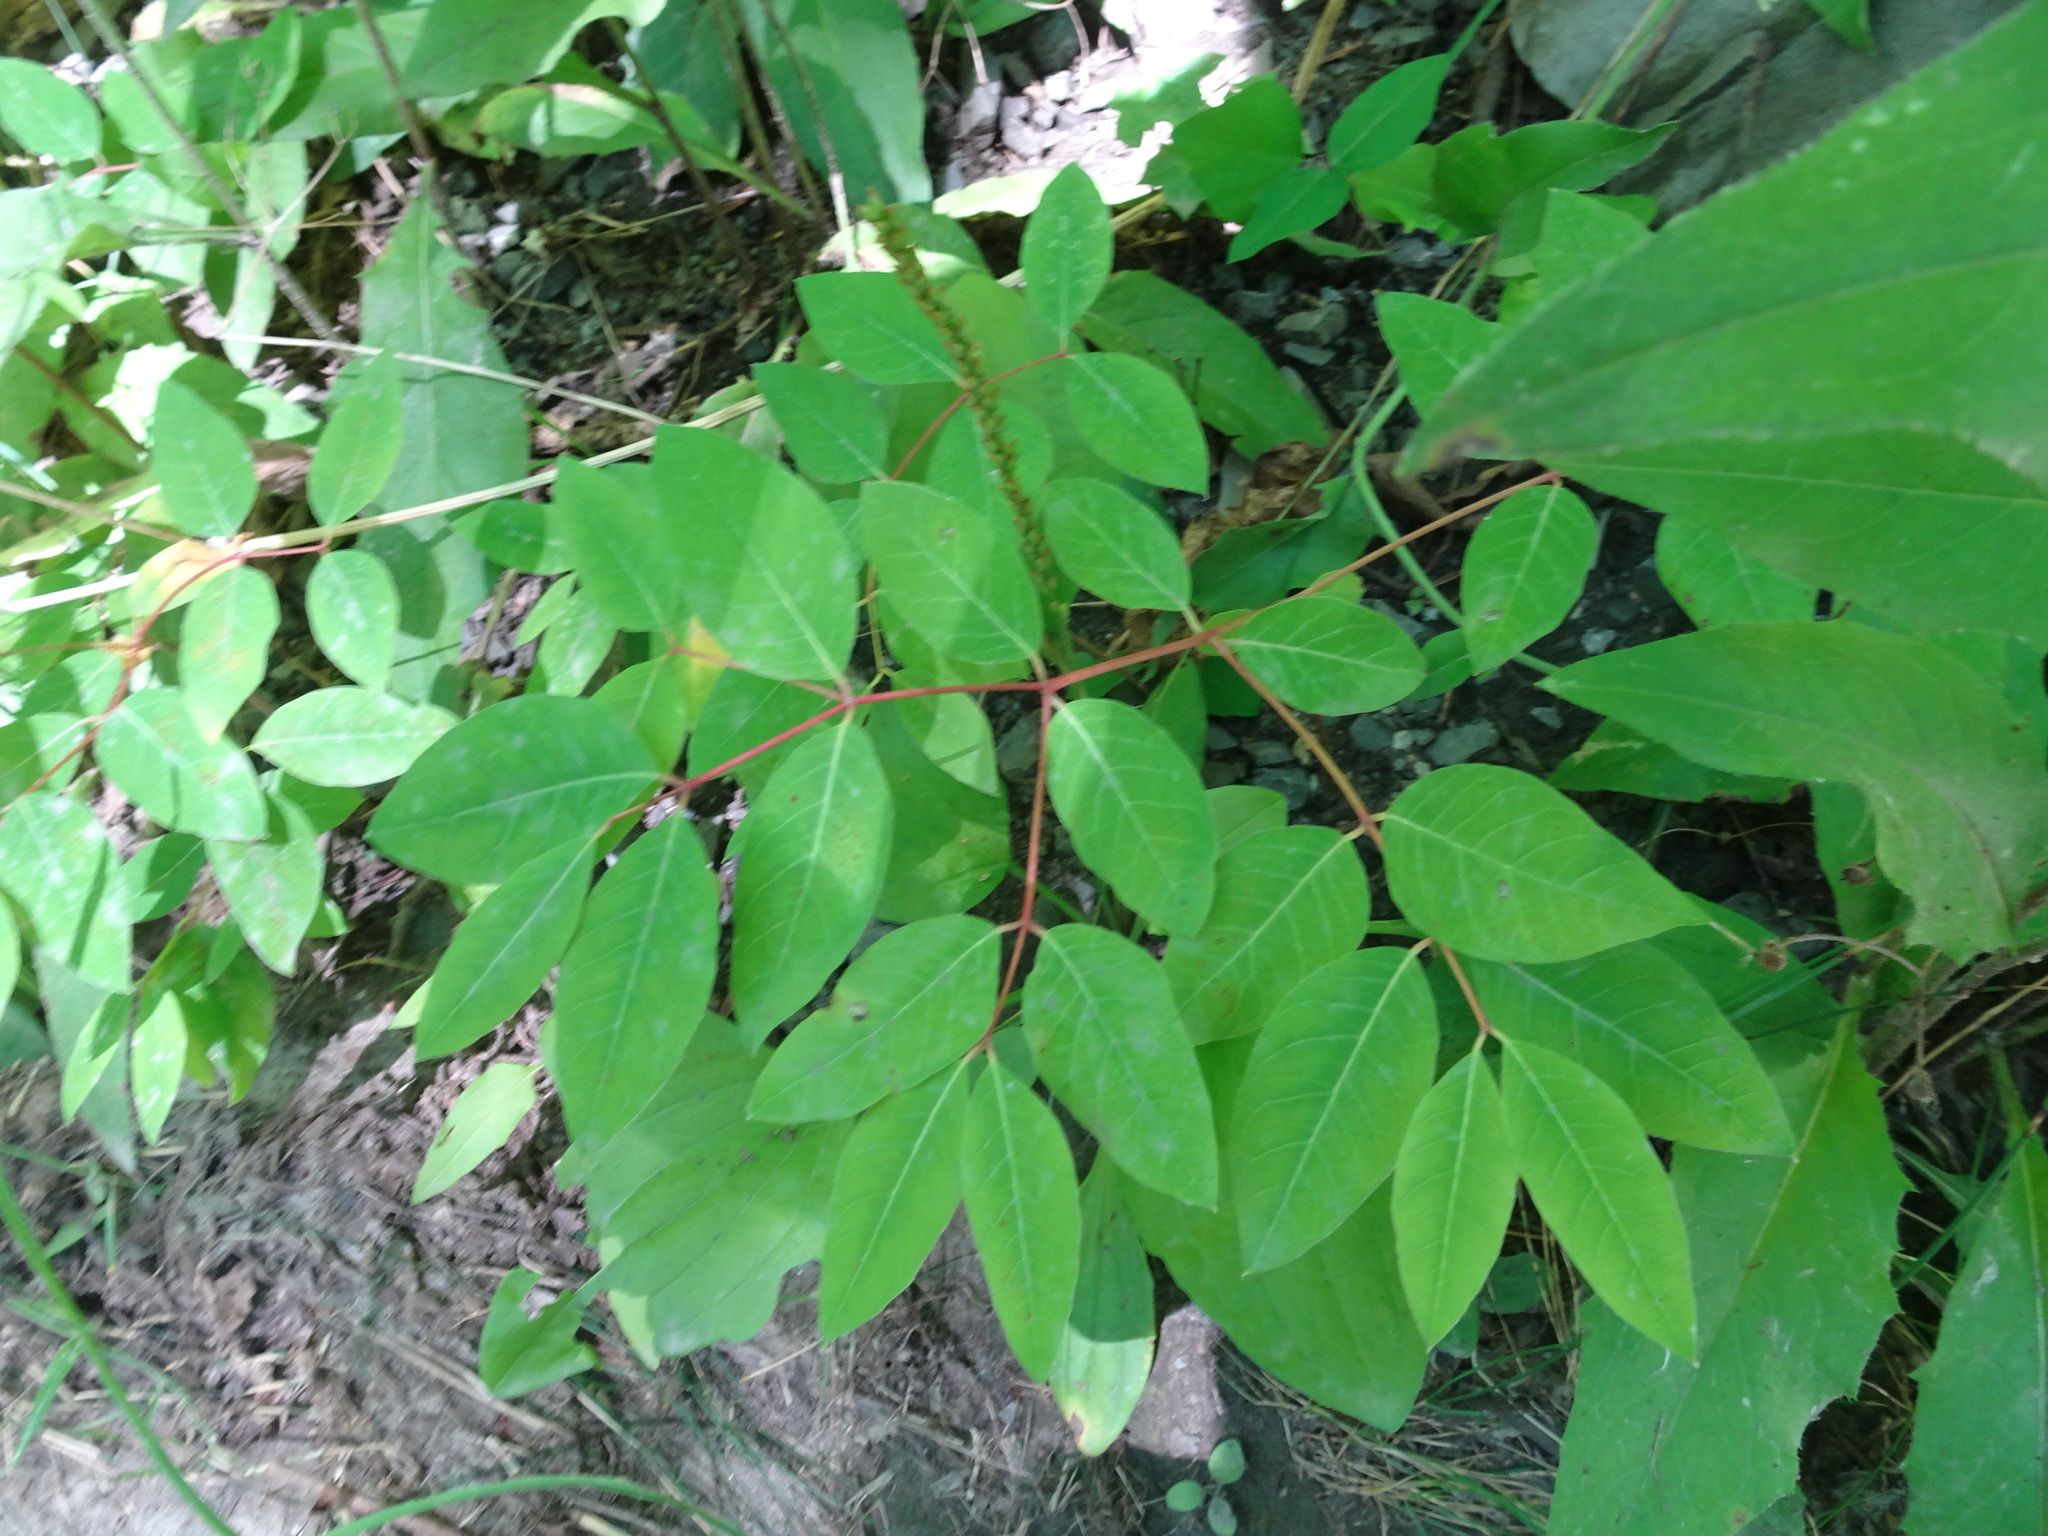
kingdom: Plantae
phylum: Tracheophyta
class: Magnoliopsida
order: Gentianales
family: Apocynaceae
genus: Apocynum
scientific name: Apocynum androsaemifolium
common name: Spreading dogbane
